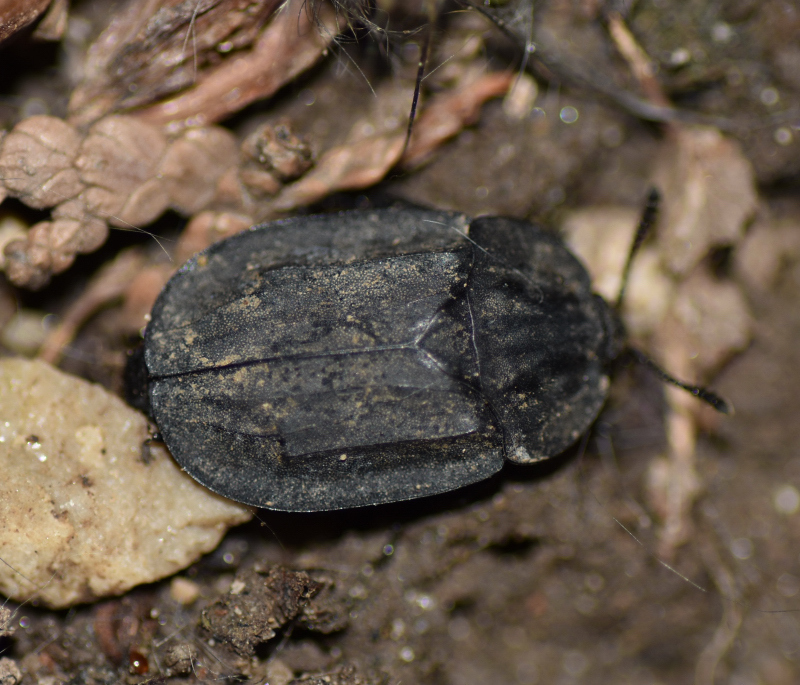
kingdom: Animalia
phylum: Arthropoda
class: Insecta
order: Coleoptera
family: Staphylinidae
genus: Oiceoptoma
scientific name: Oiceoptoma inaequale
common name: Ridged carrion beetle
